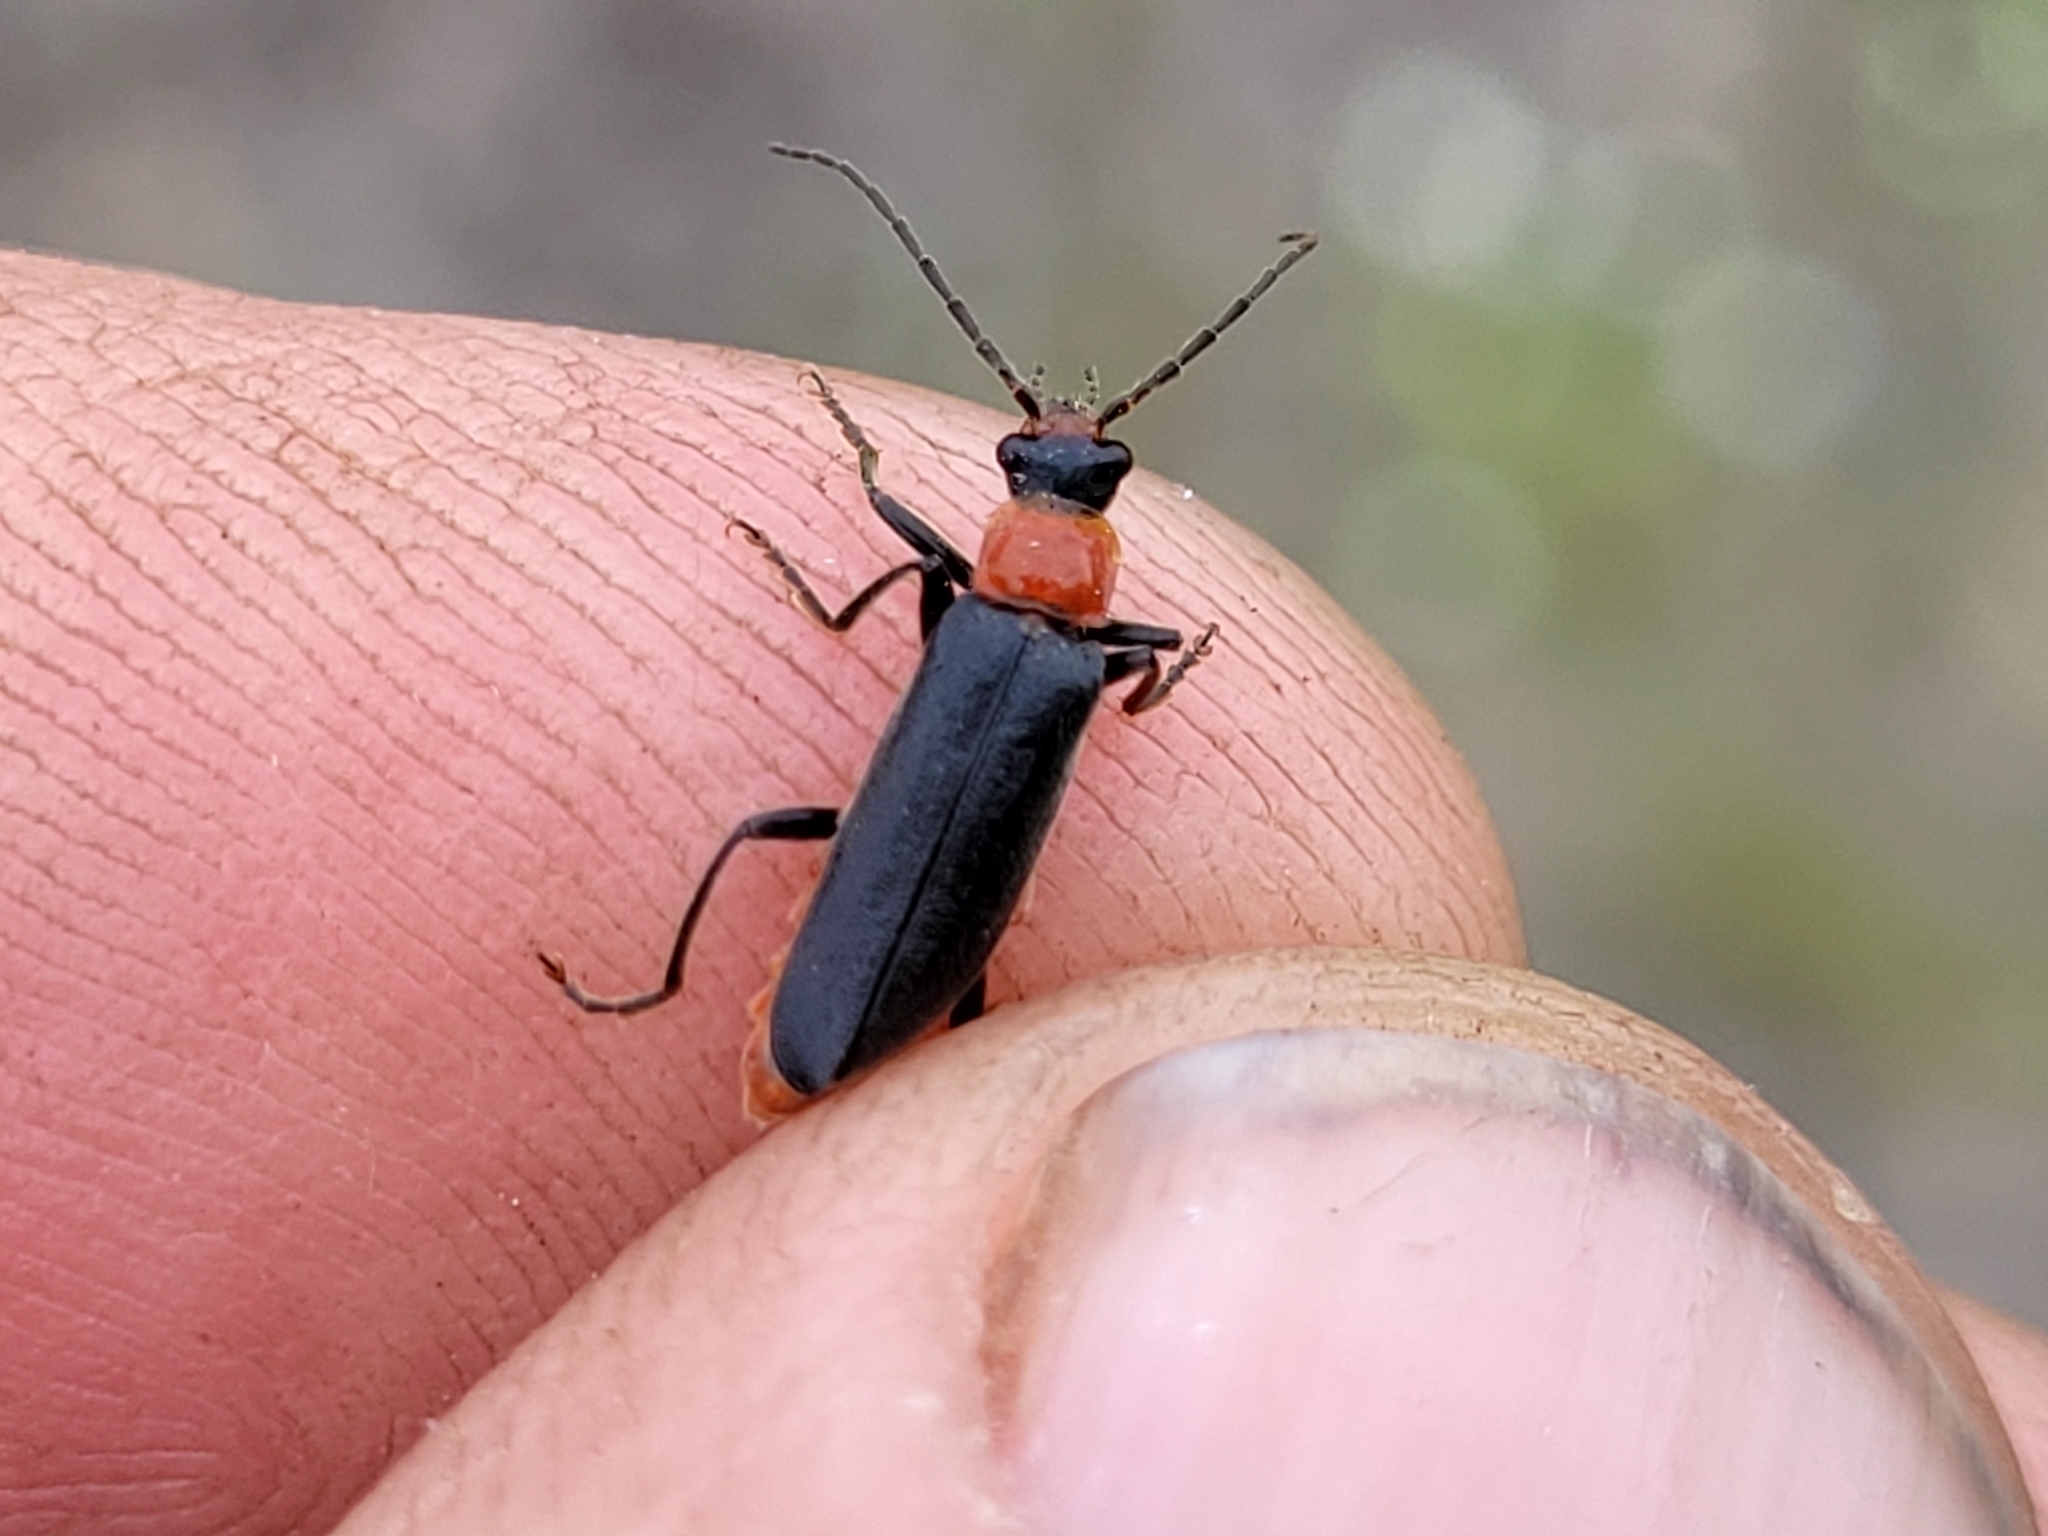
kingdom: Animalia
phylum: Arthropoda
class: Insecta
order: Coleoptera
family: Cantharidae
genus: Cantharis
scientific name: Cantharis aneba
